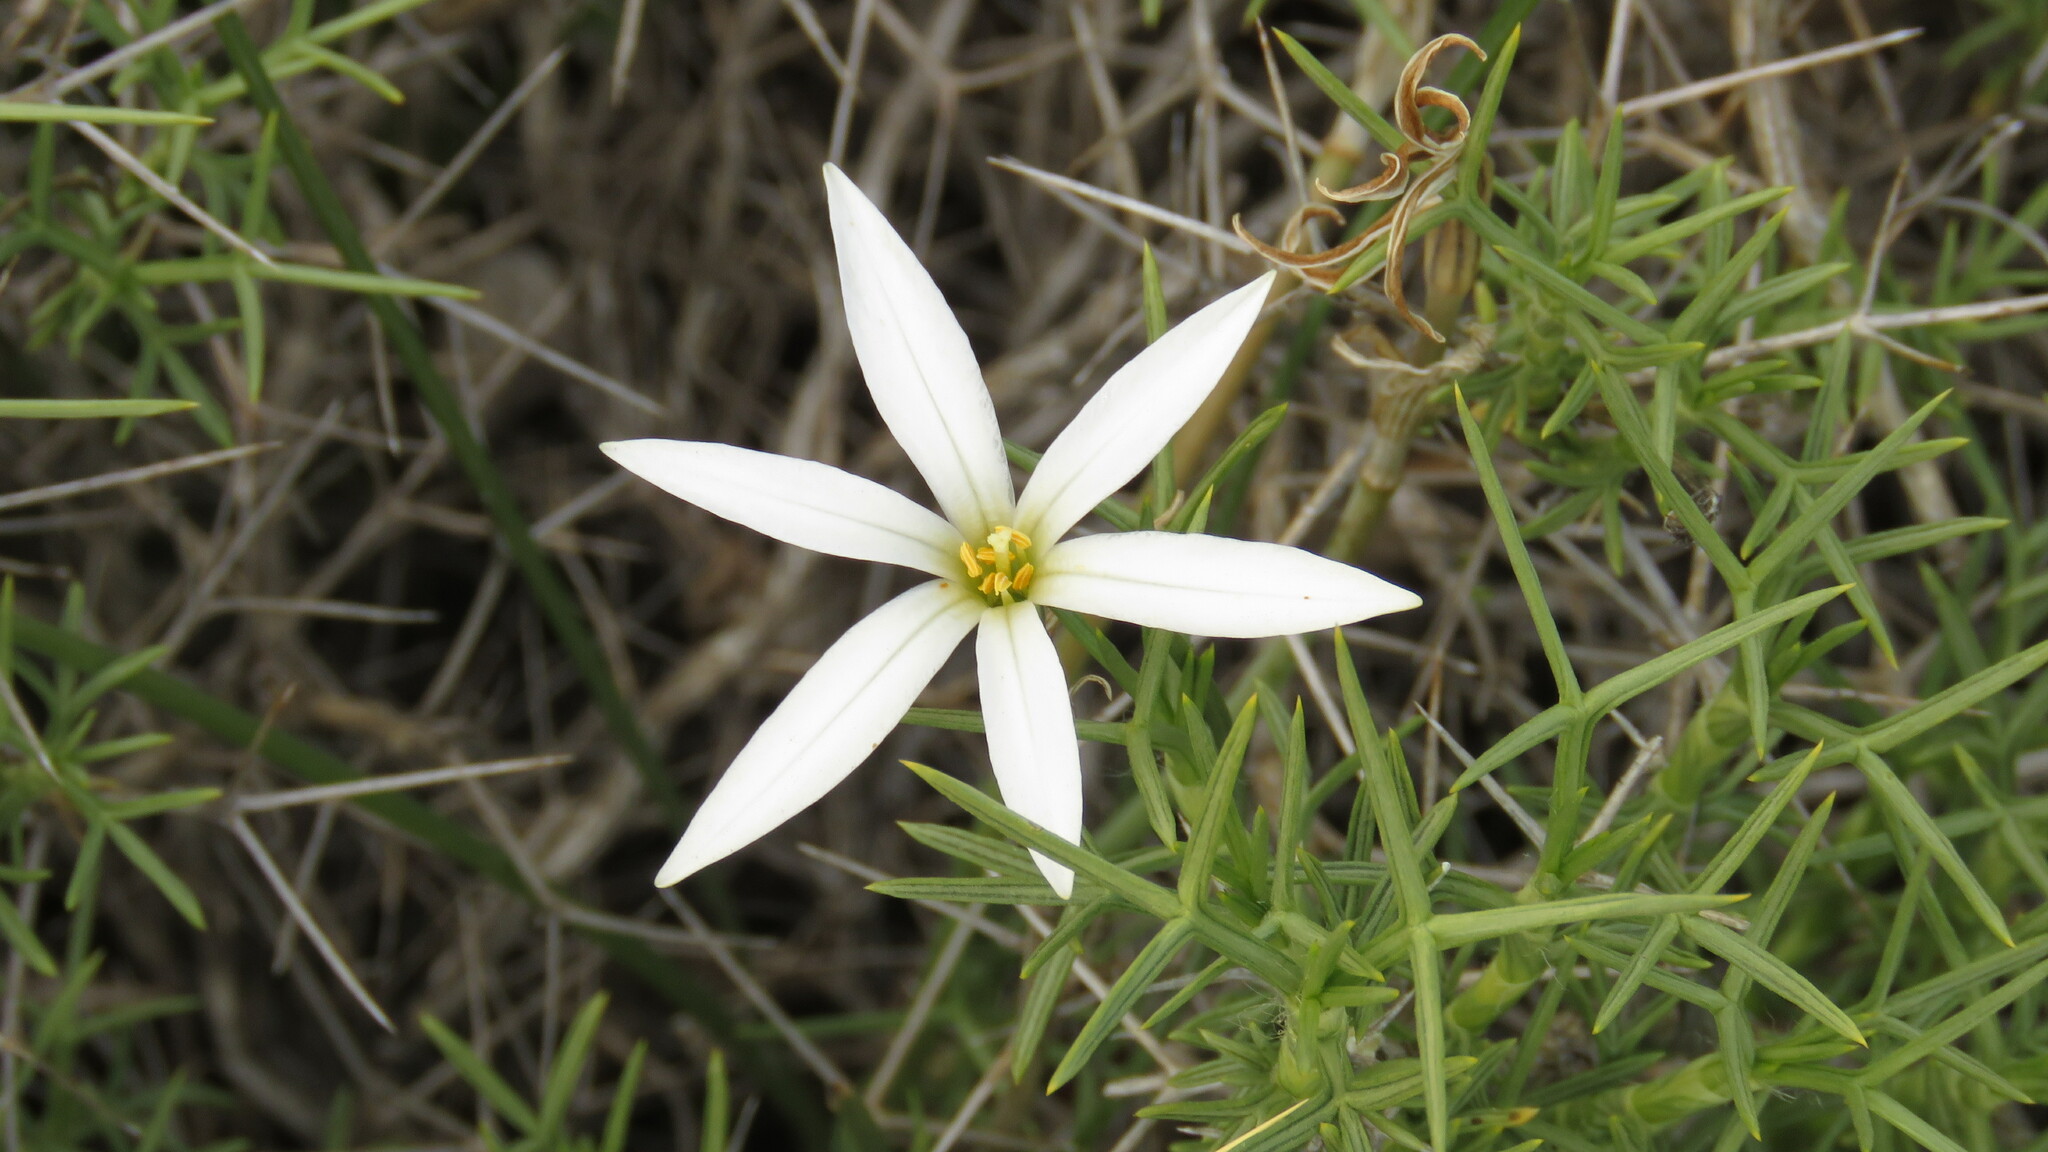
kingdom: Plantae
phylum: Tracheophyta
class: Liliopsida
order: Asparagales
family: Amaryllidaceae
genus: Tristagma
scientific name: Tristagma patagonicum
